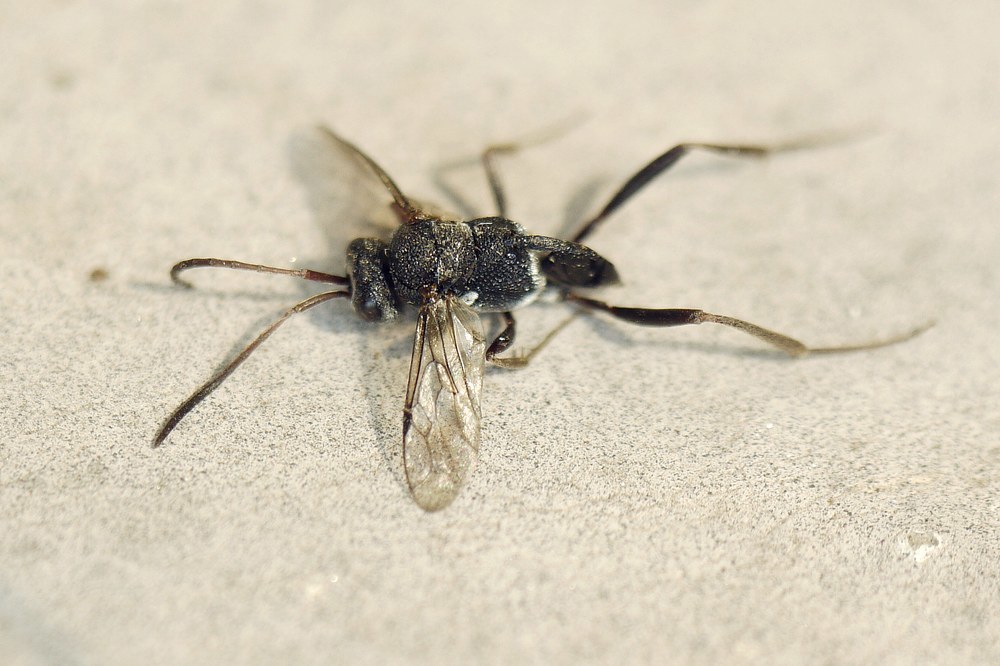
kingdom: Animalia
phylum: Arthropoda
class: Insecta
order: Hymenoptera
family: Evaniidae
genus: Prosevania
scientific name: Prosevania fuscipes
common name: Ensign wasp
